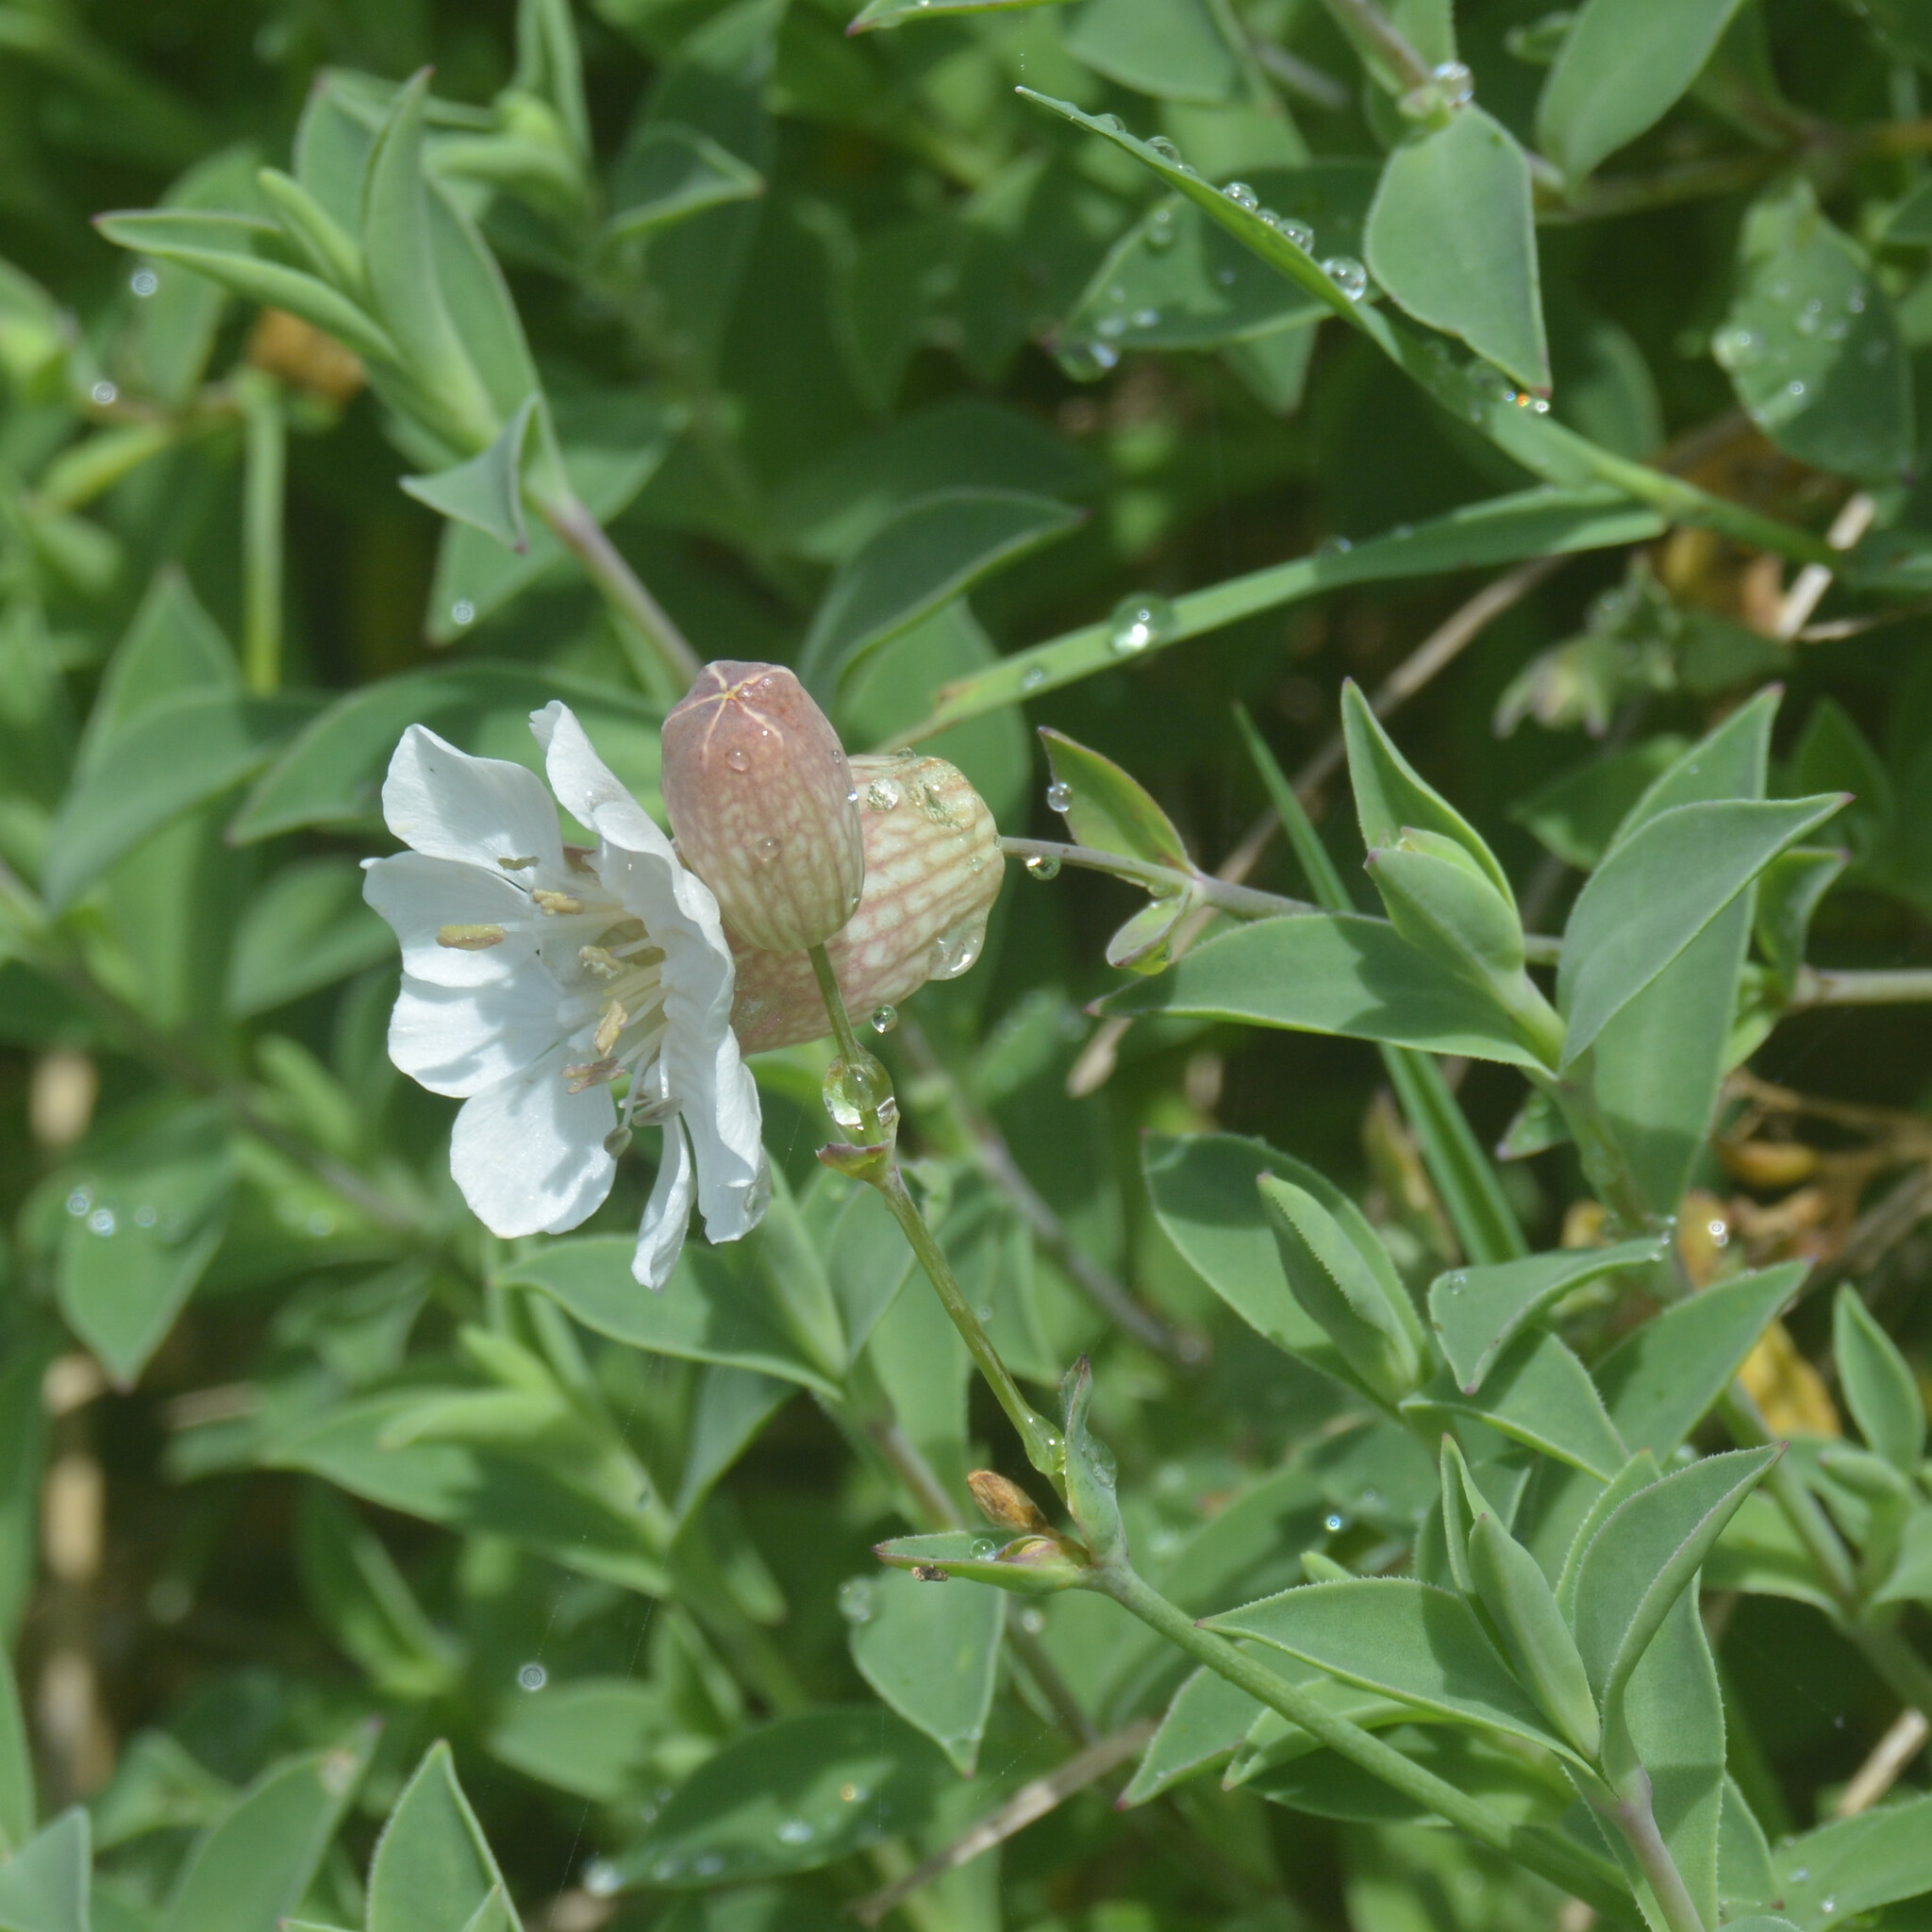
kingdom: Plantae
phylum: Tracheophyta
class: Magnoliopsida
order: Caryophyllales
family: Caryophyllaceae
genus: Silene
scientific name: Silene uniflora
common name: Sea campion
